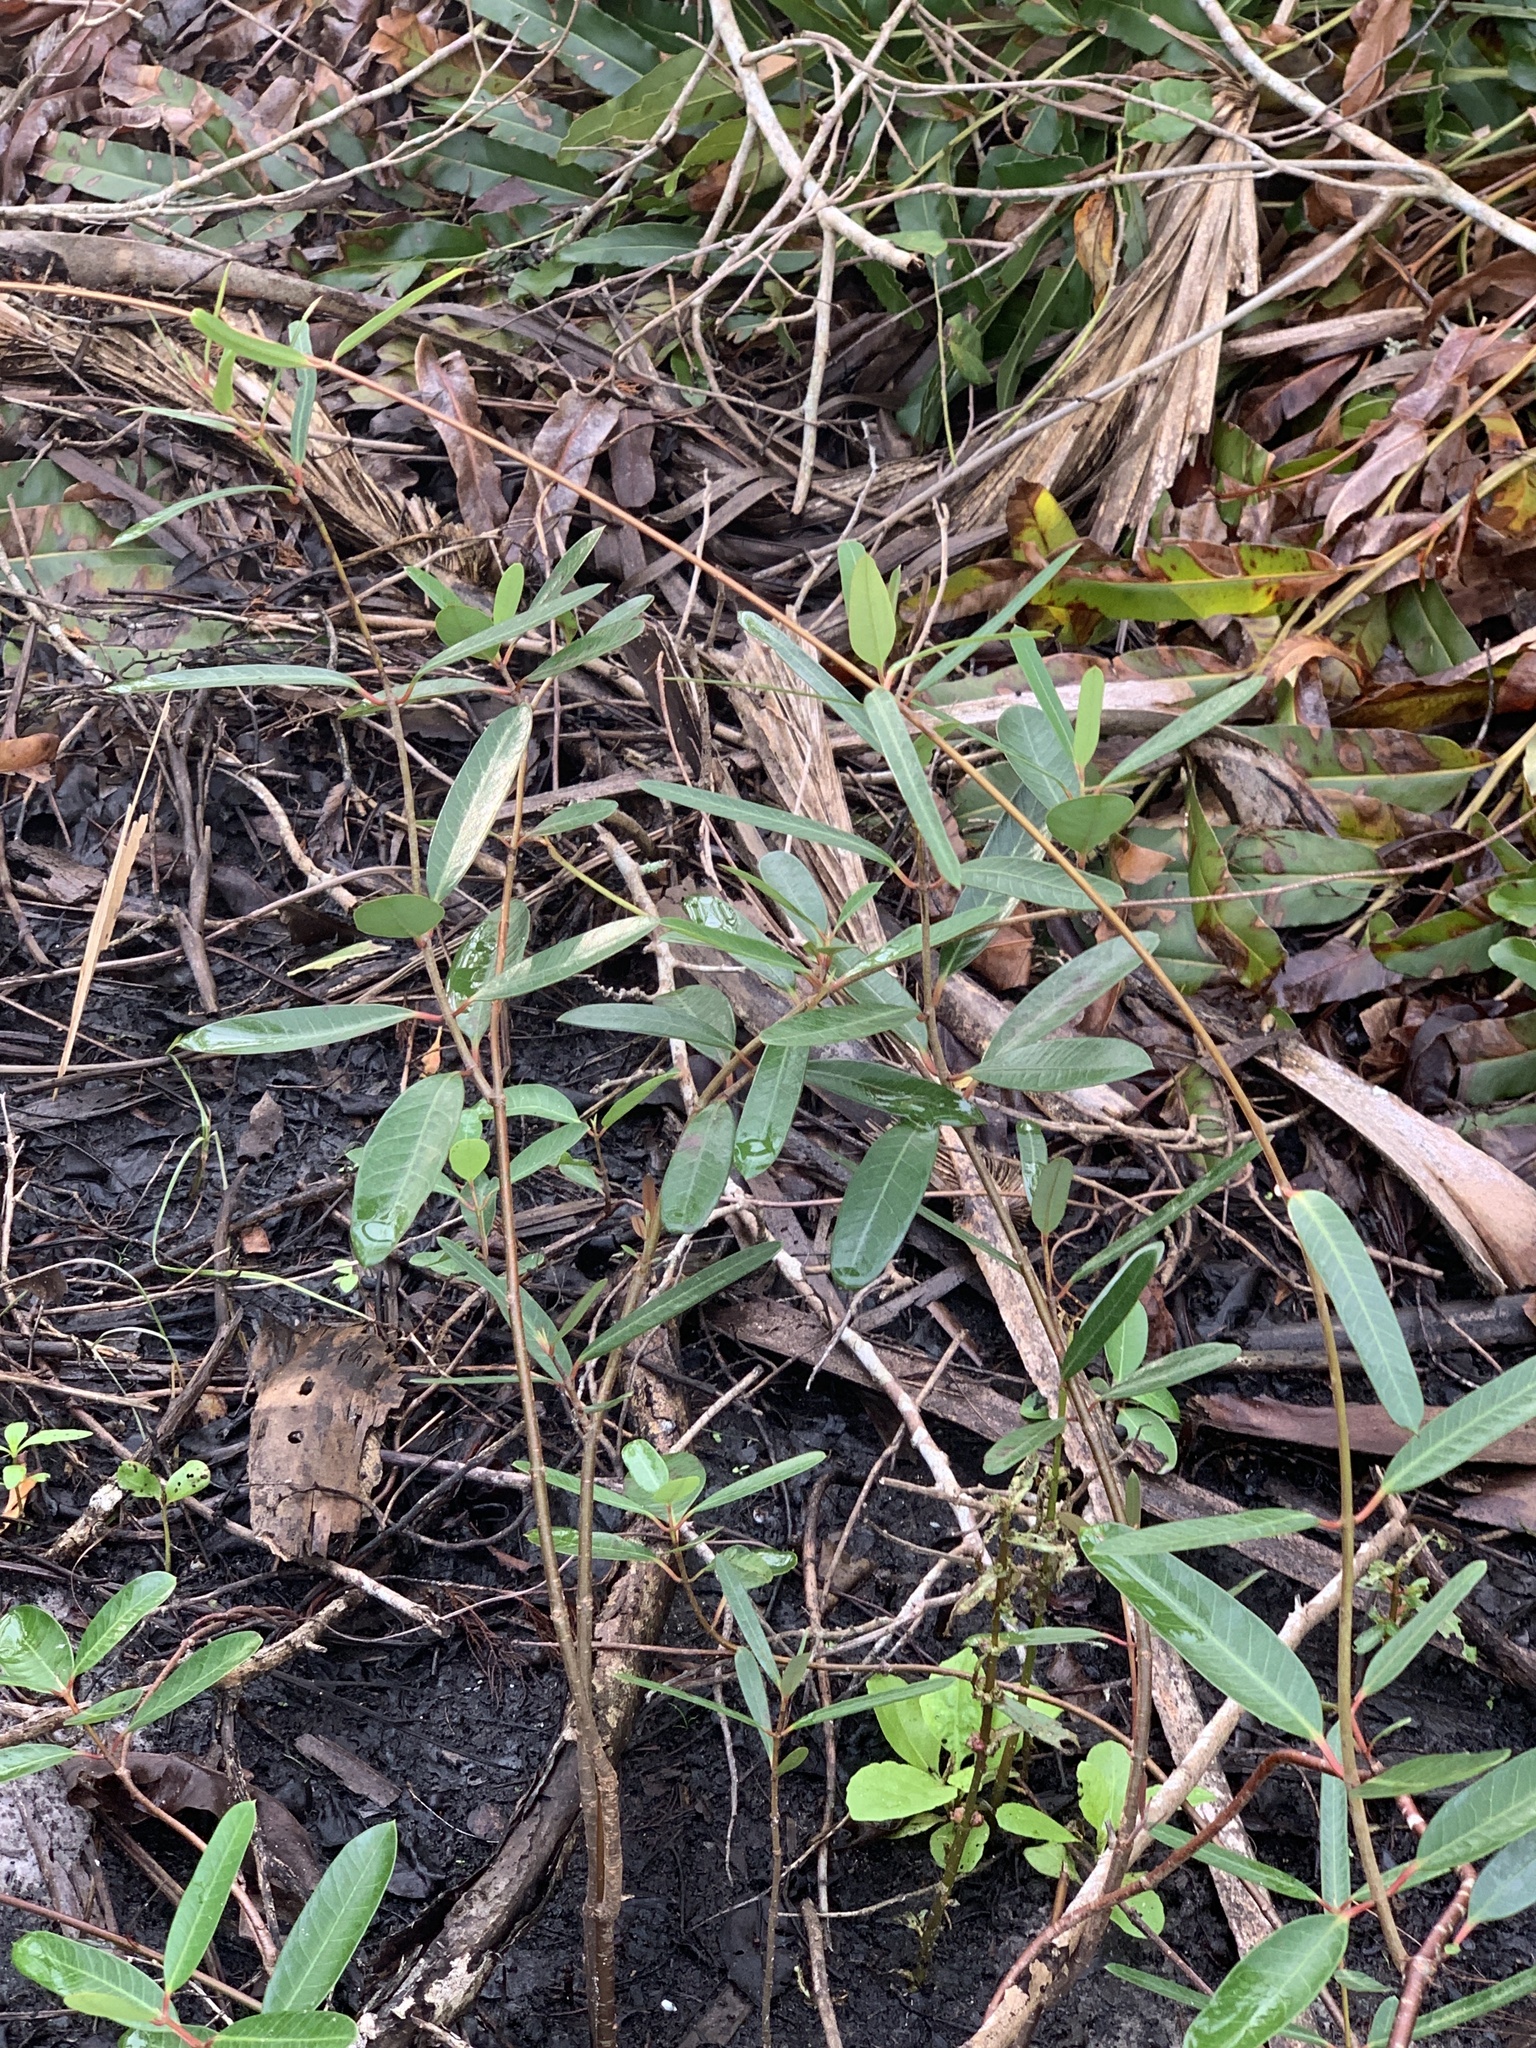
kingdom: Plantae
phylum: Tracheophyta
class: Magnoliopsida
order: Gentianales
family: Apocynaceae
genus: Rhabdadenia
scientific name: Rhabdadenia biflora
